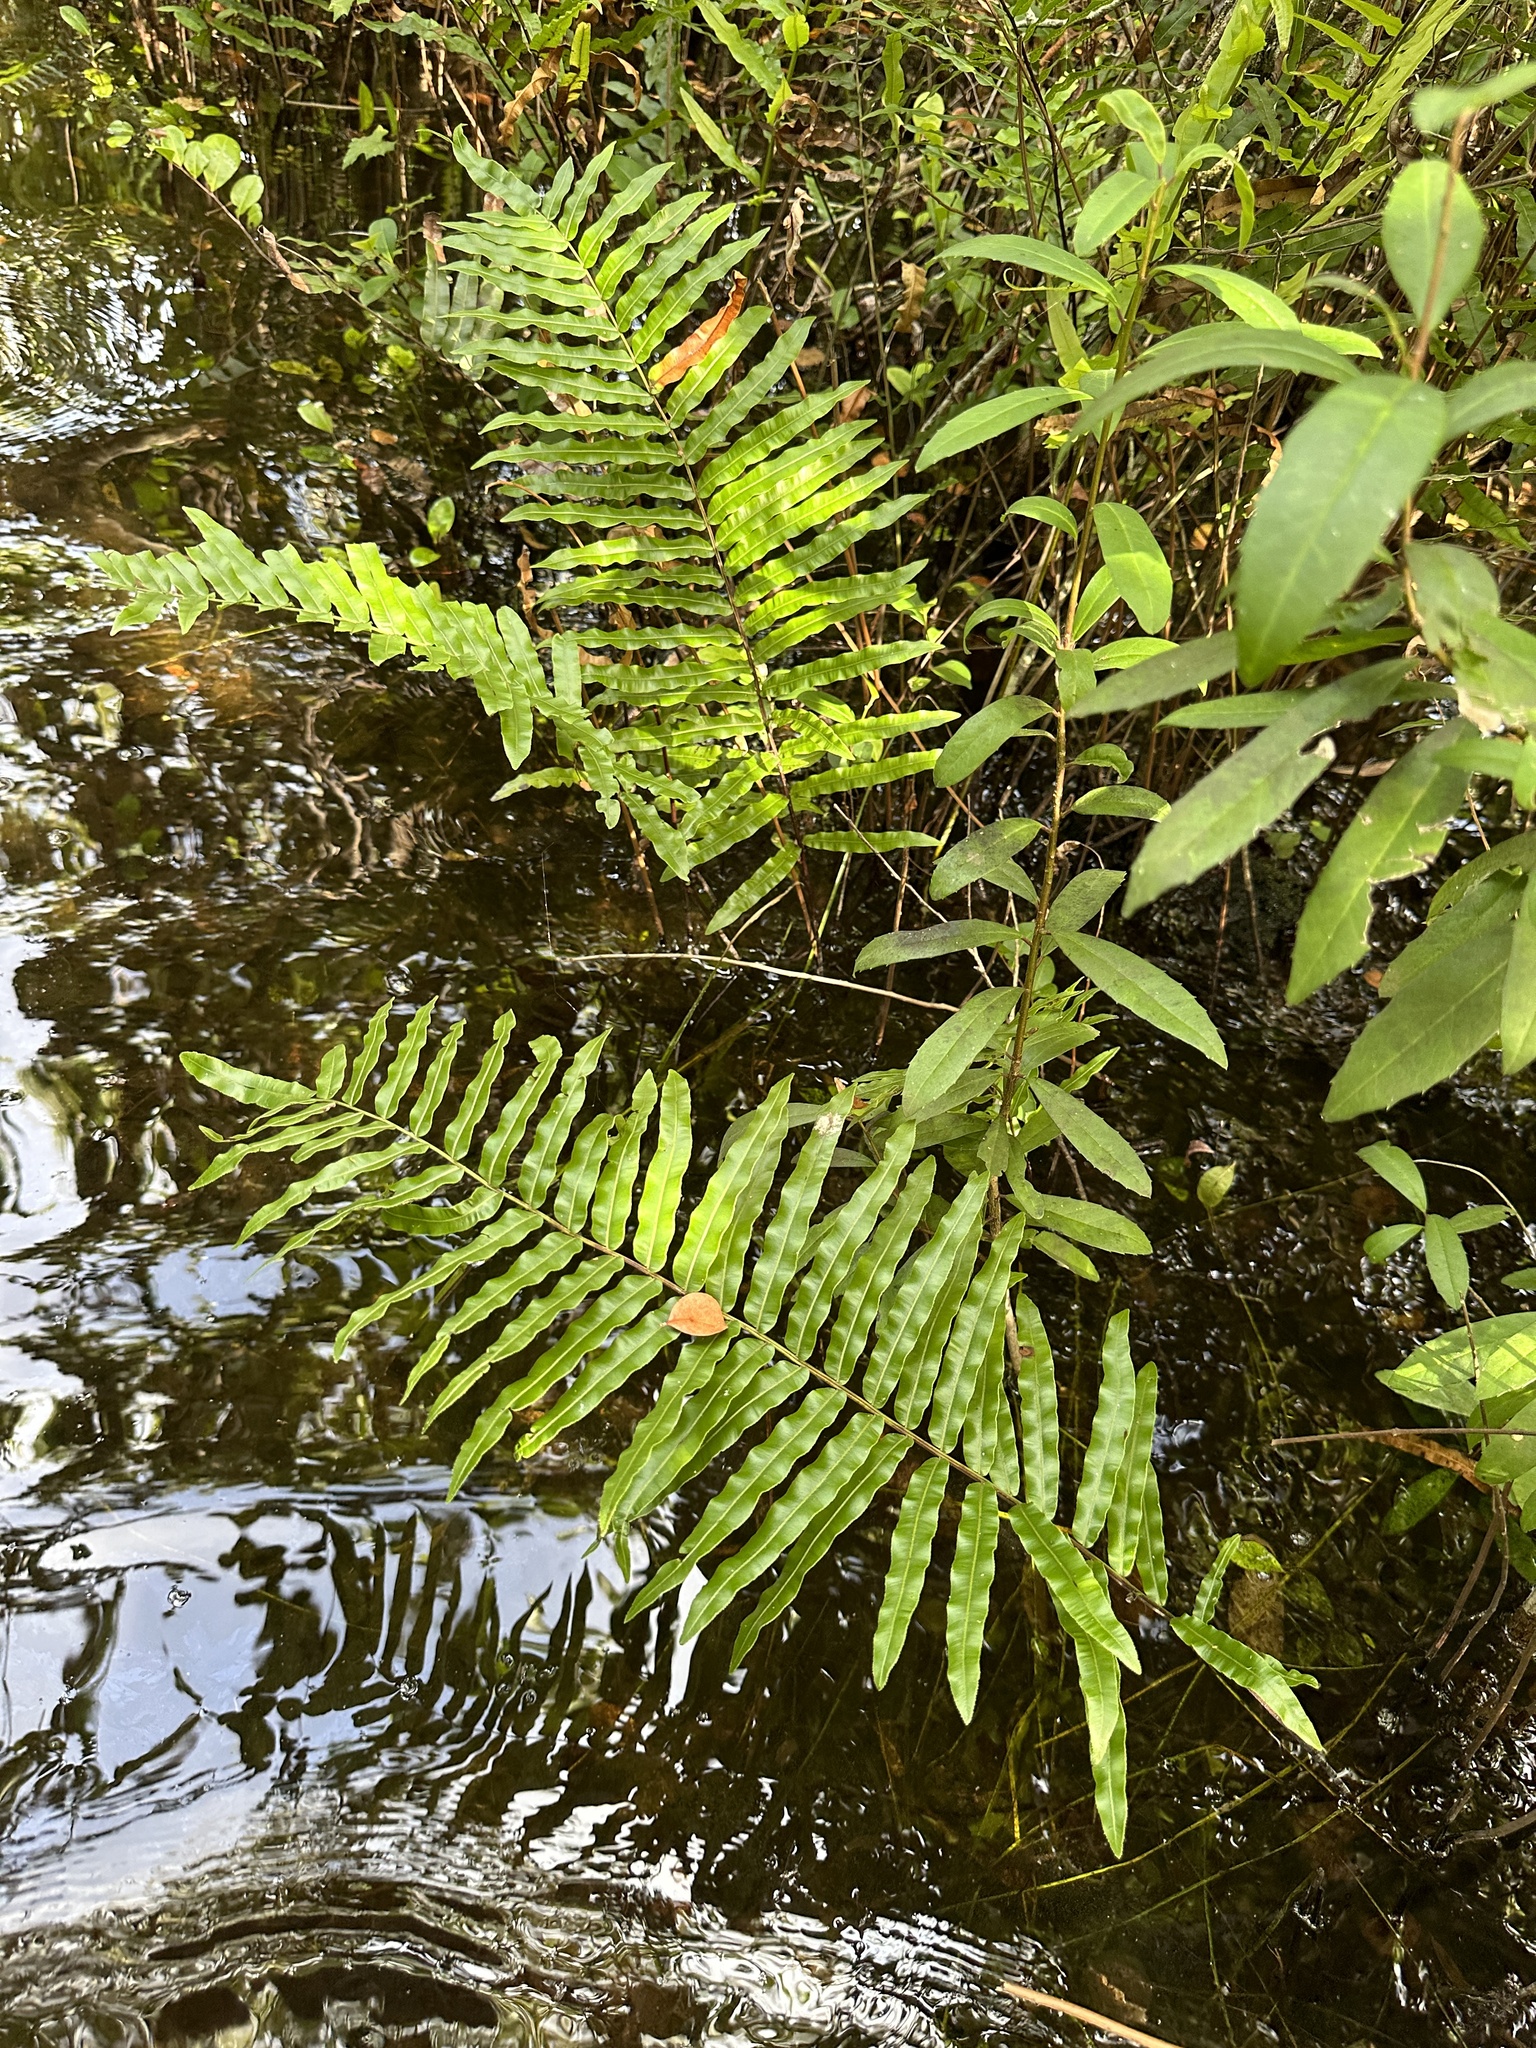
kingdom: Plantae
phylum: Tracheophyta
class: Polypodiopsida
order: Polypodiales
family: Blechnaceae
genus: Telmatoblechnum
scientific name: Telmatoblechnum serrulatum
